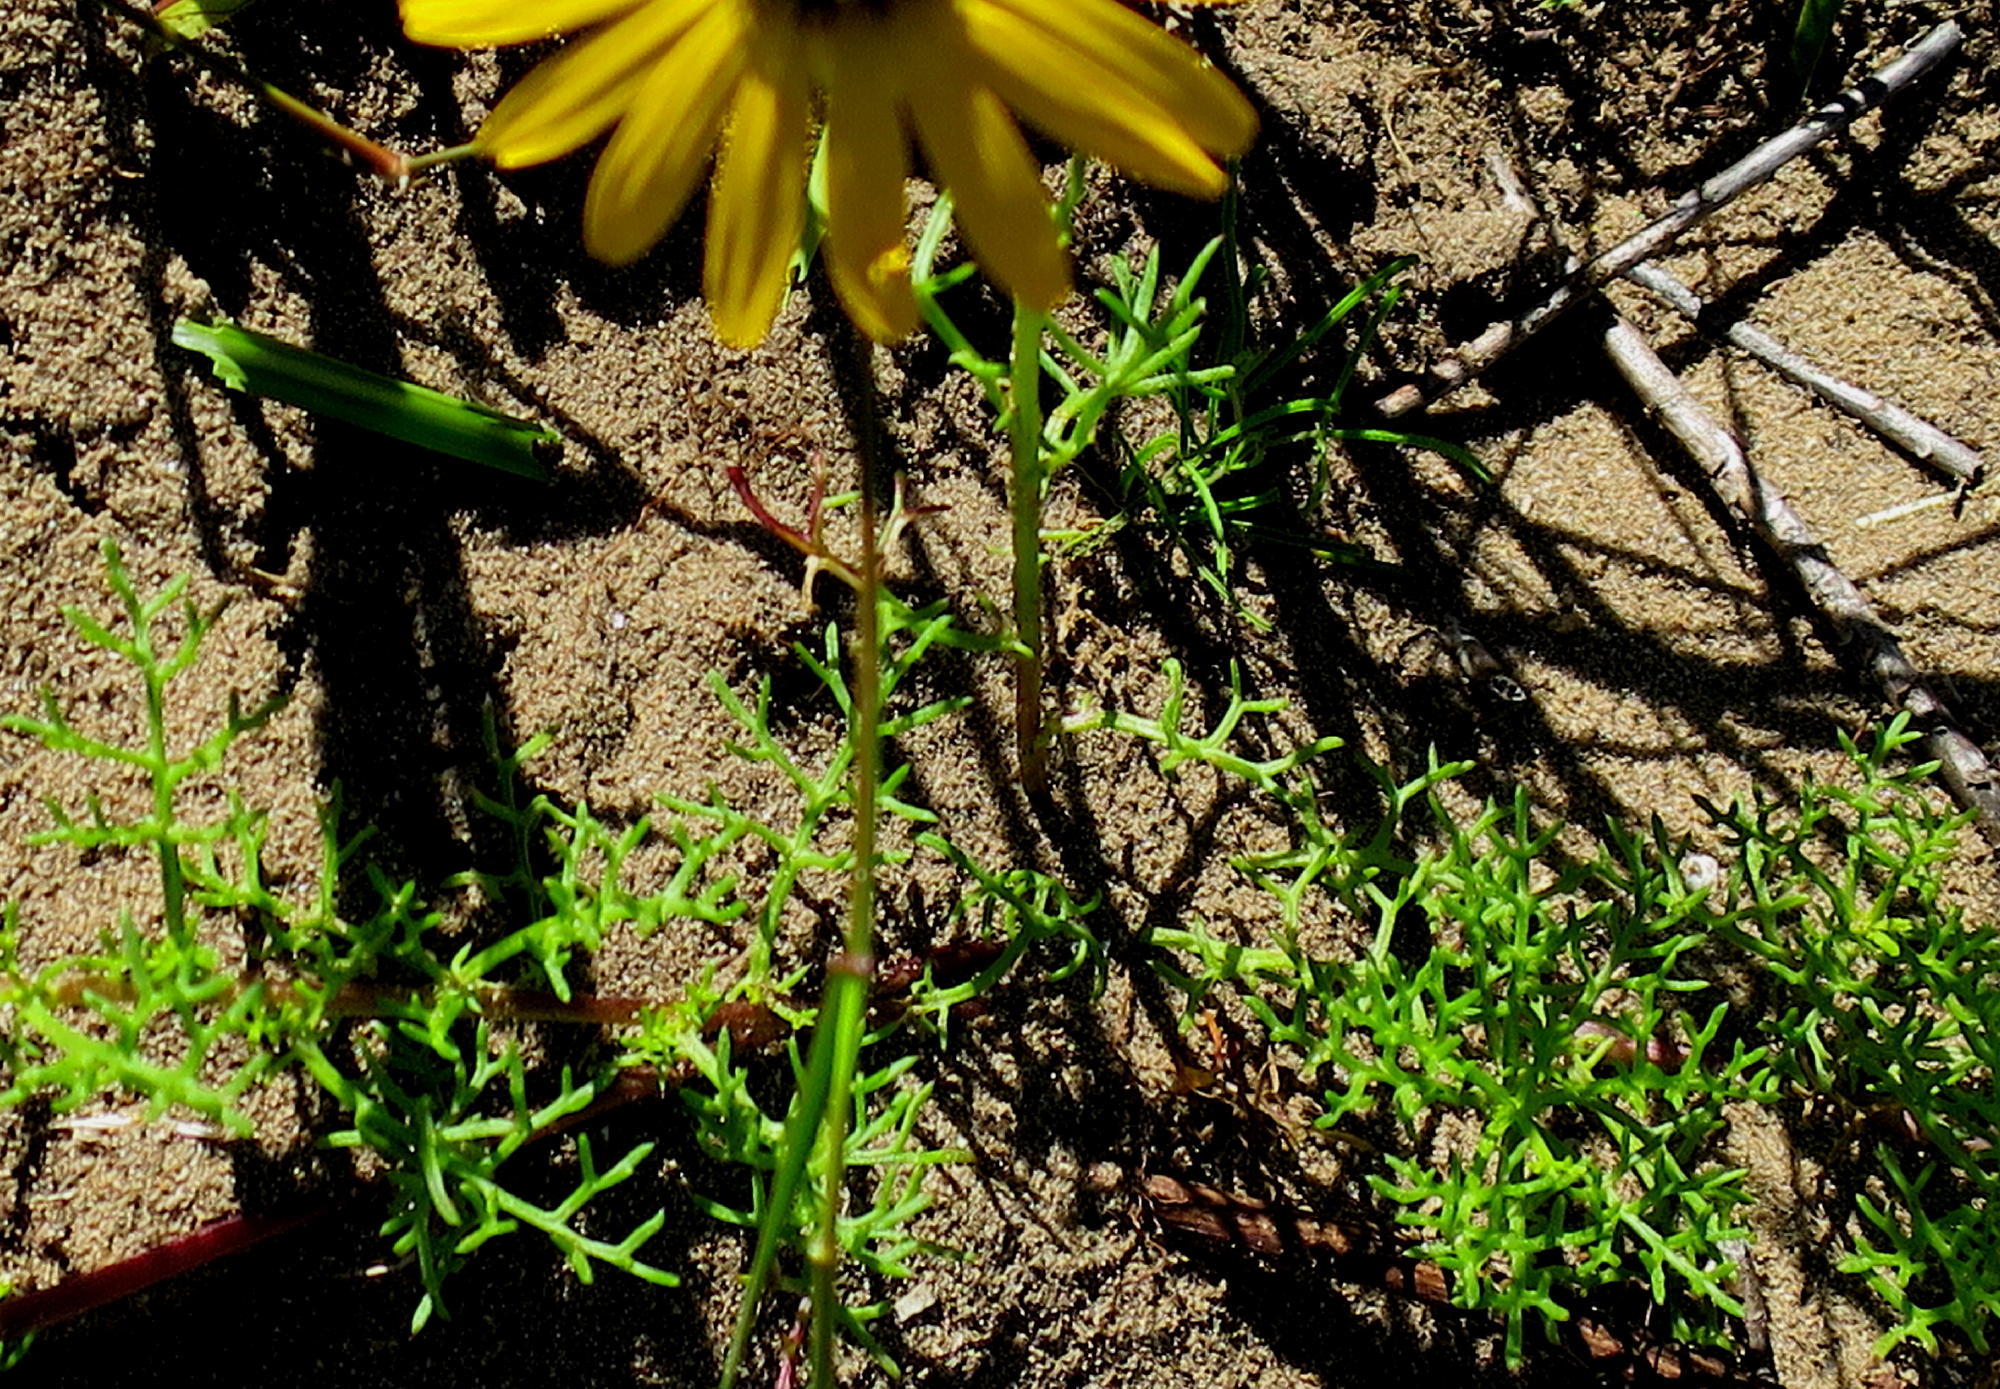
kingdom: Plantae
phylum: Tracheophyta
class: Magnoliopsida
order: Asterales
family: Asteraceae
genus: Ursinia
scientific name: Ursinia chrysanthemoides
